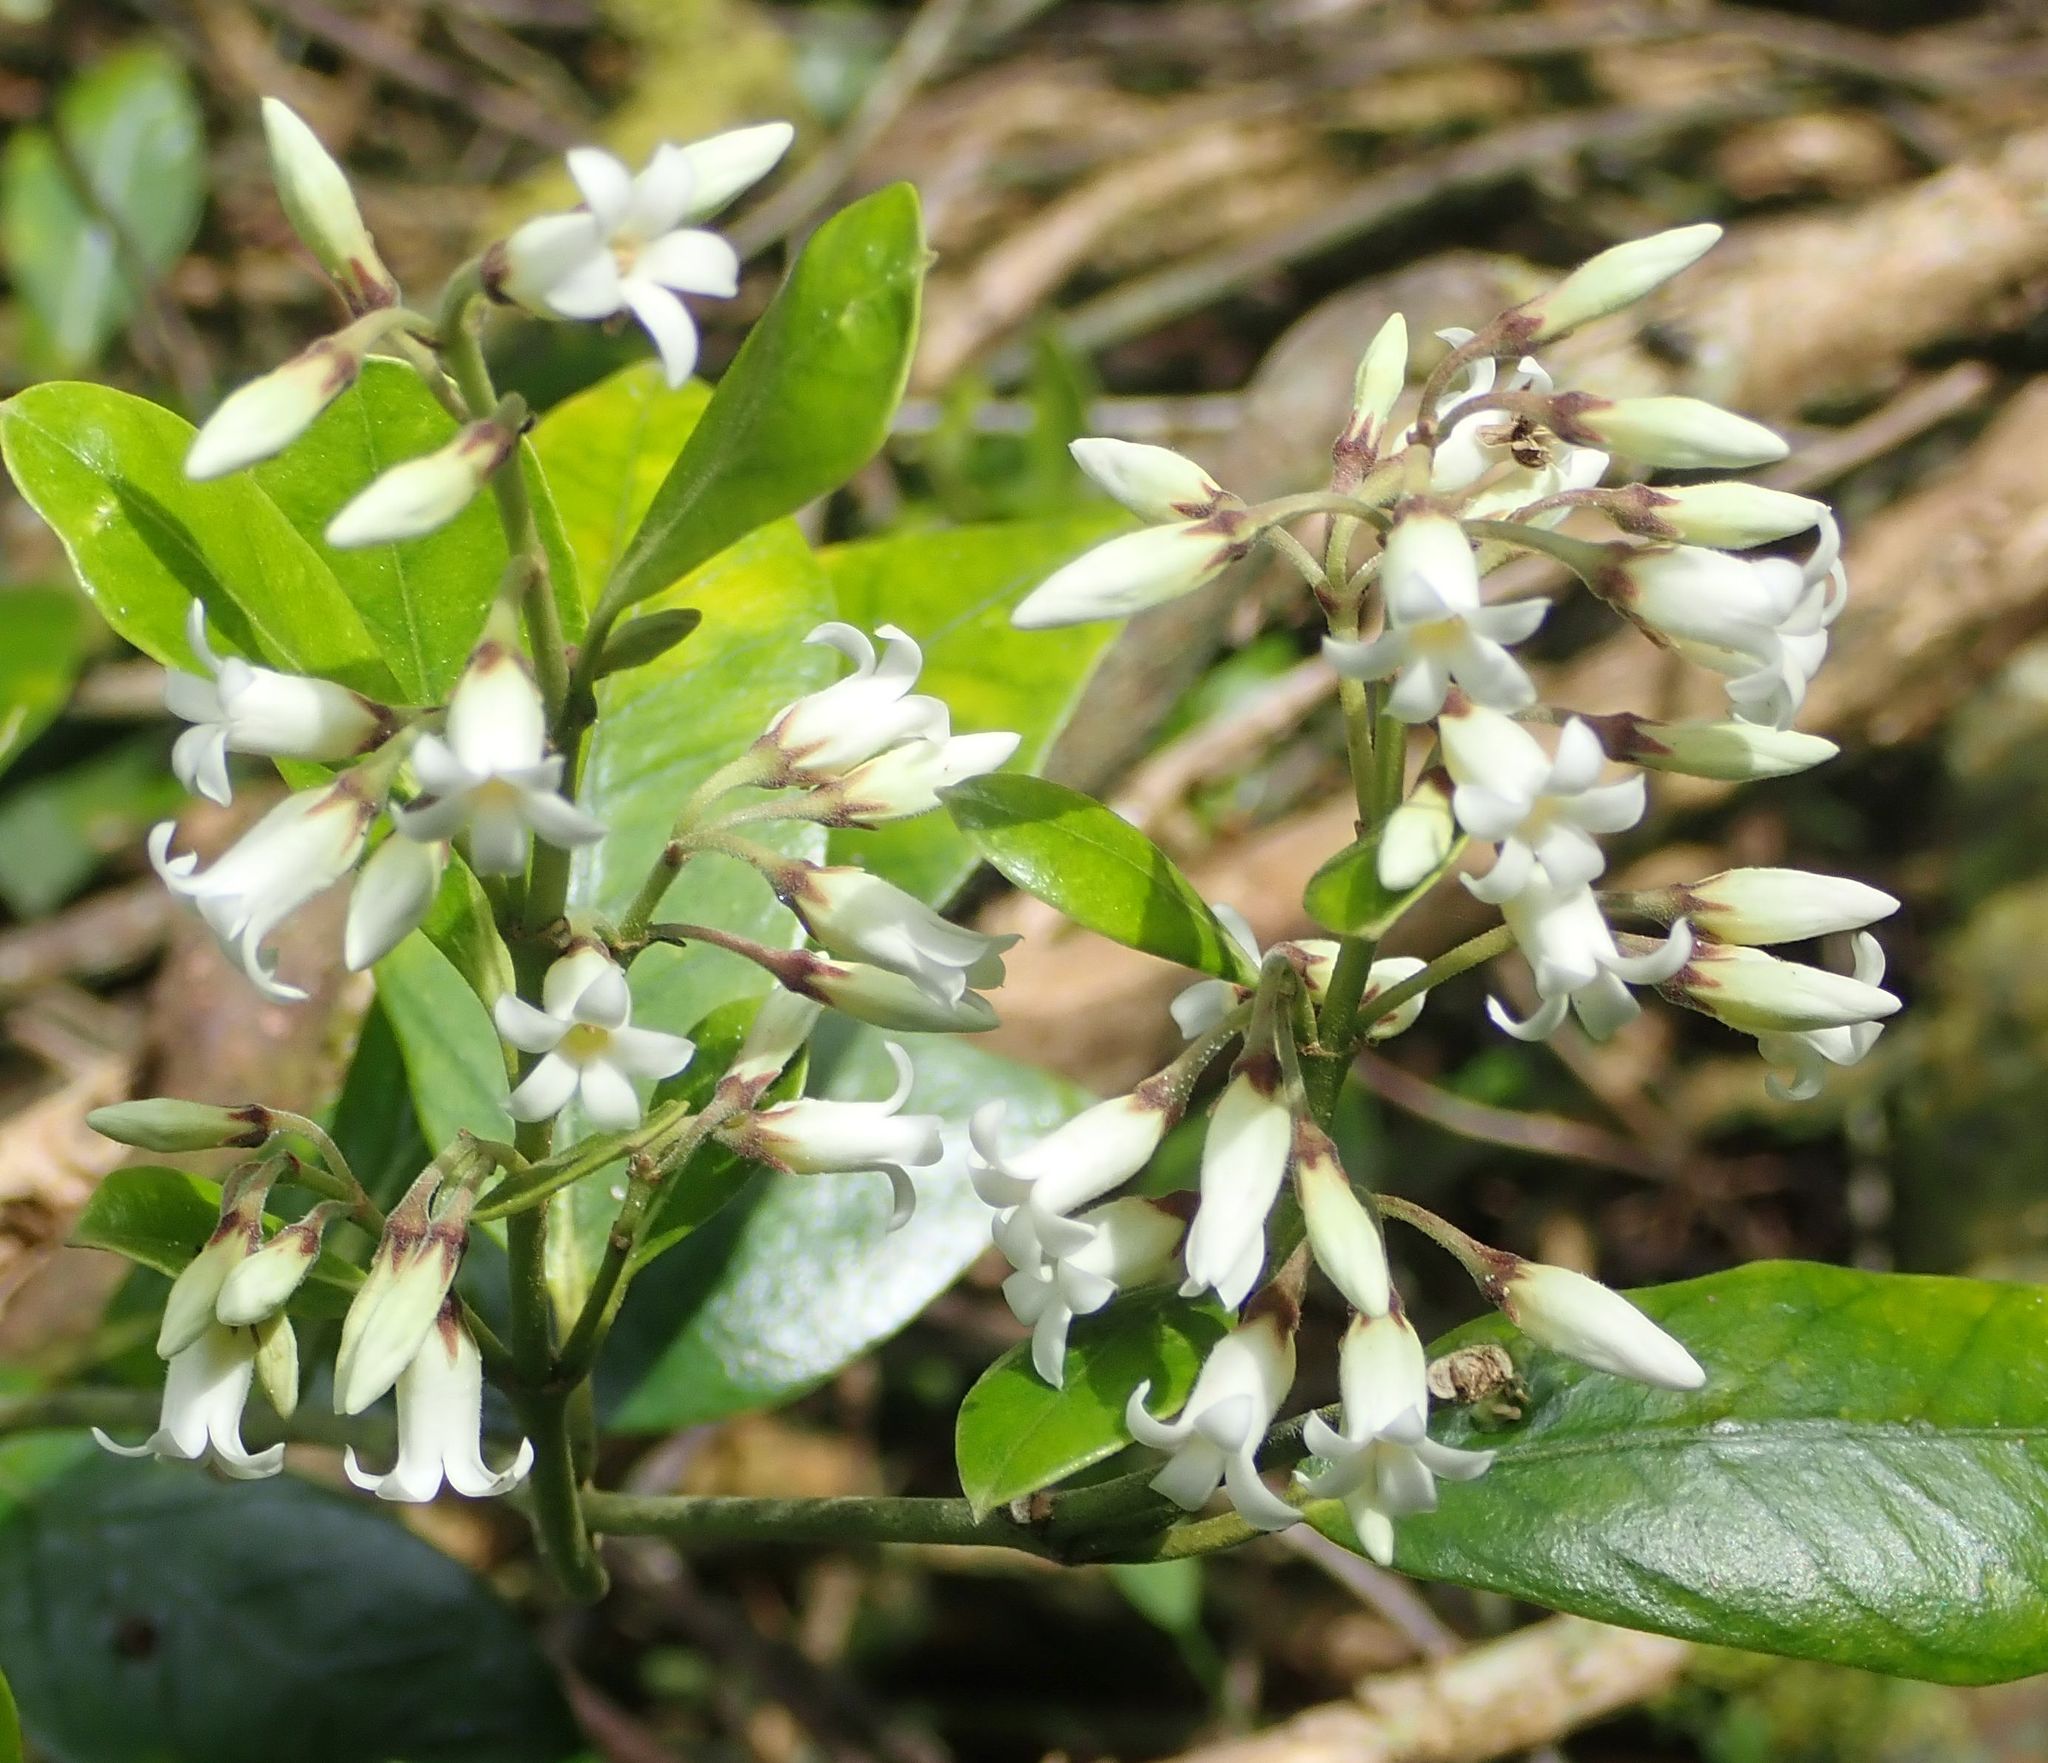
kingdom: Plantae
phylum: Tracheophyta
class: Magnoliopsida
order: Gentianales
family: Apocynaceae
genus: Parsonsia
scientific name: Parsonsia heterophylla
